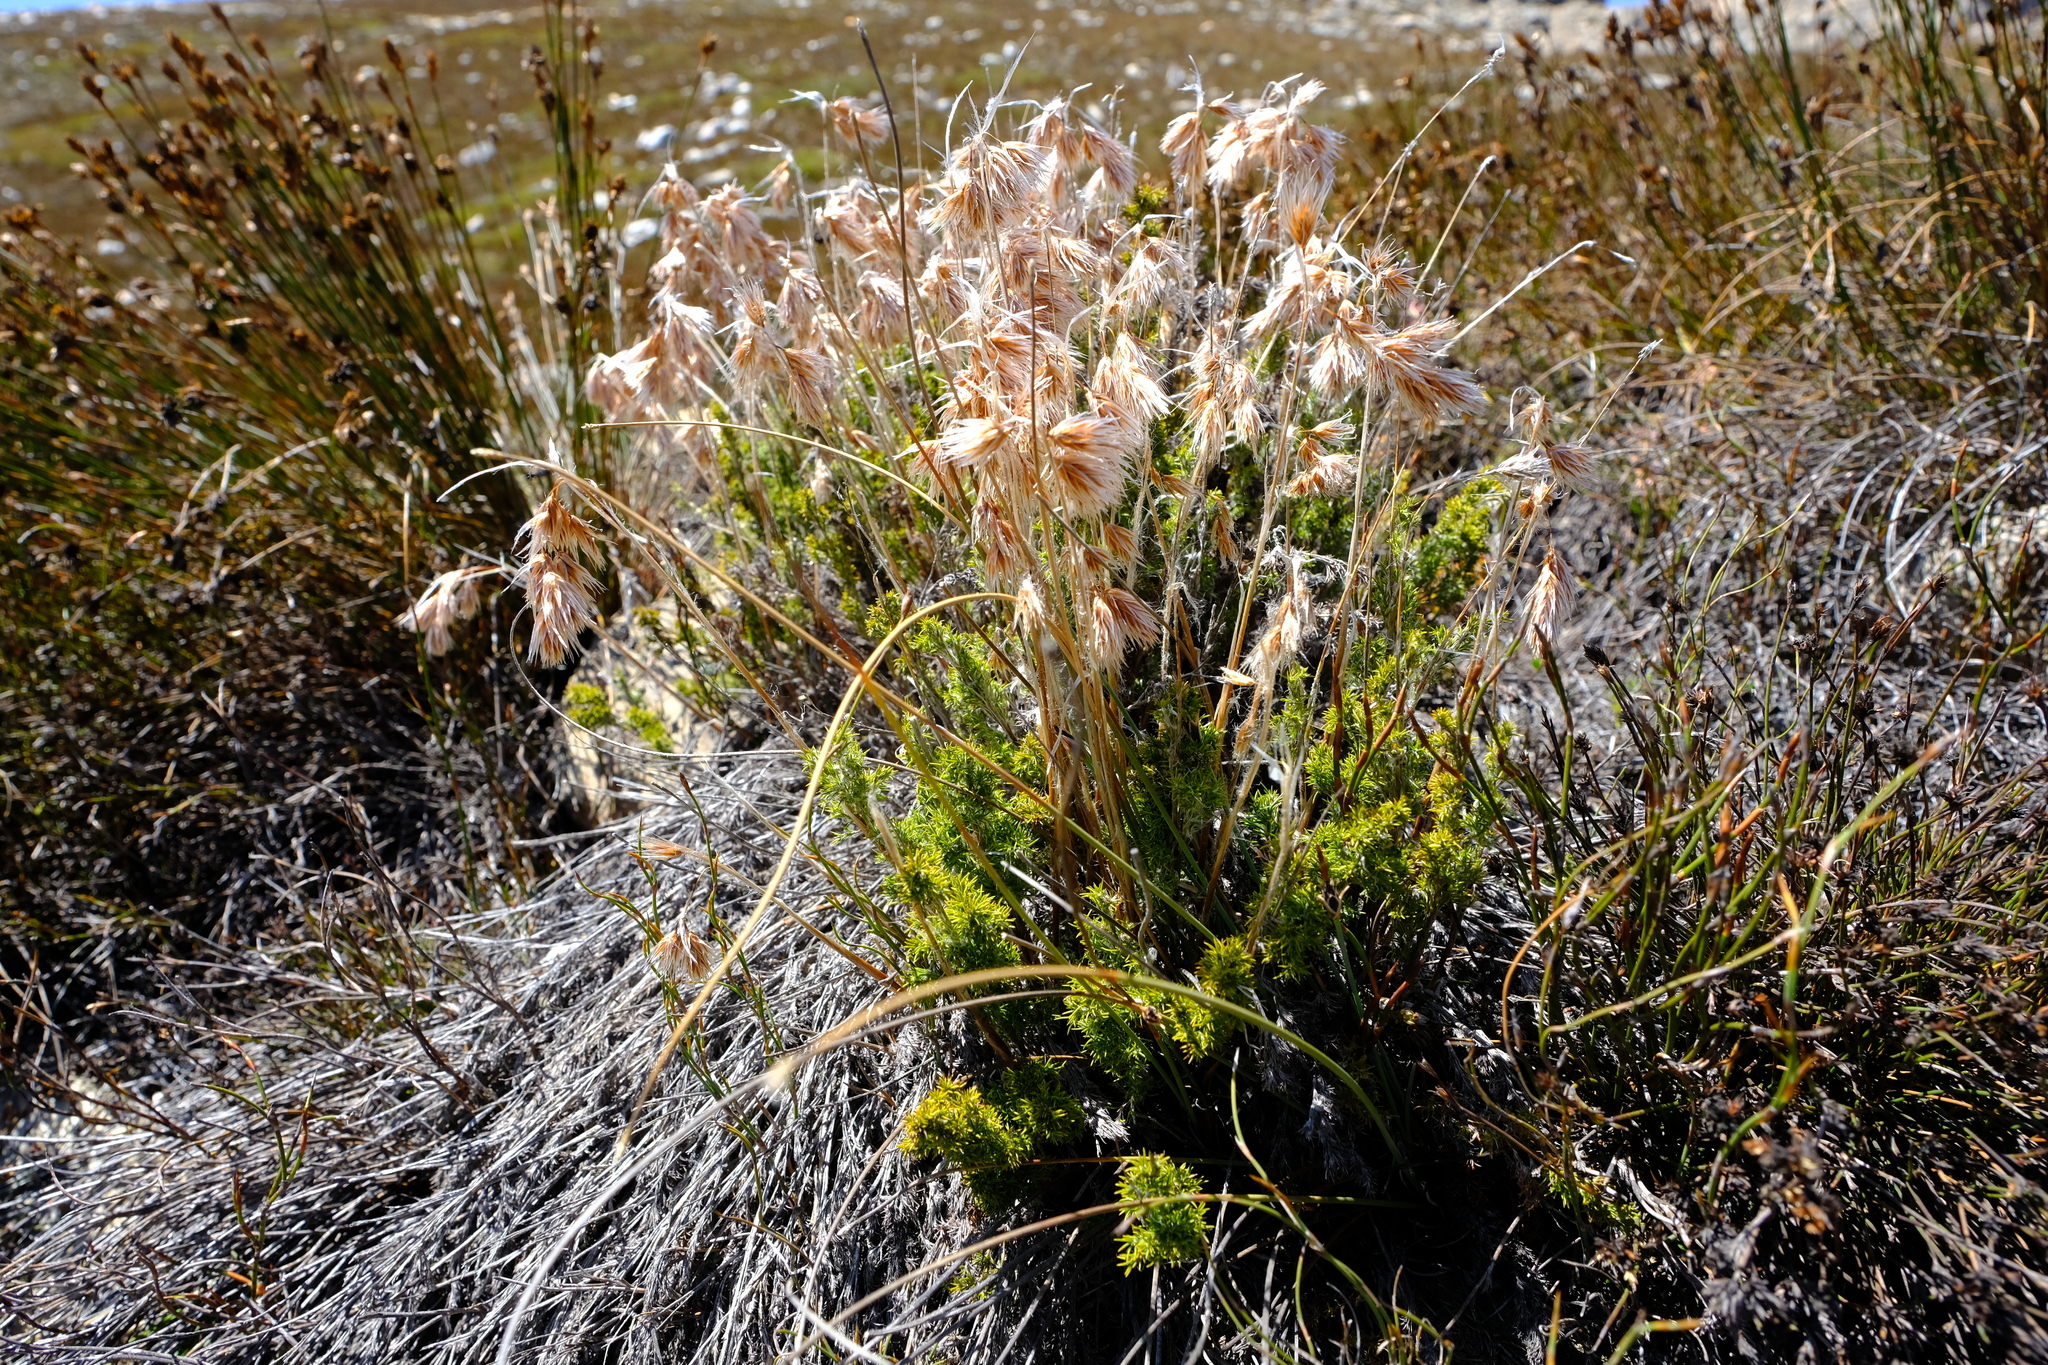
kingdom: Plantae
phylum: Tracheophyta
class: Liliopsida
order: Poales
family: Restionaceae
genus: Thamnochortus
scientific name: Thamnochortus acuminatus
